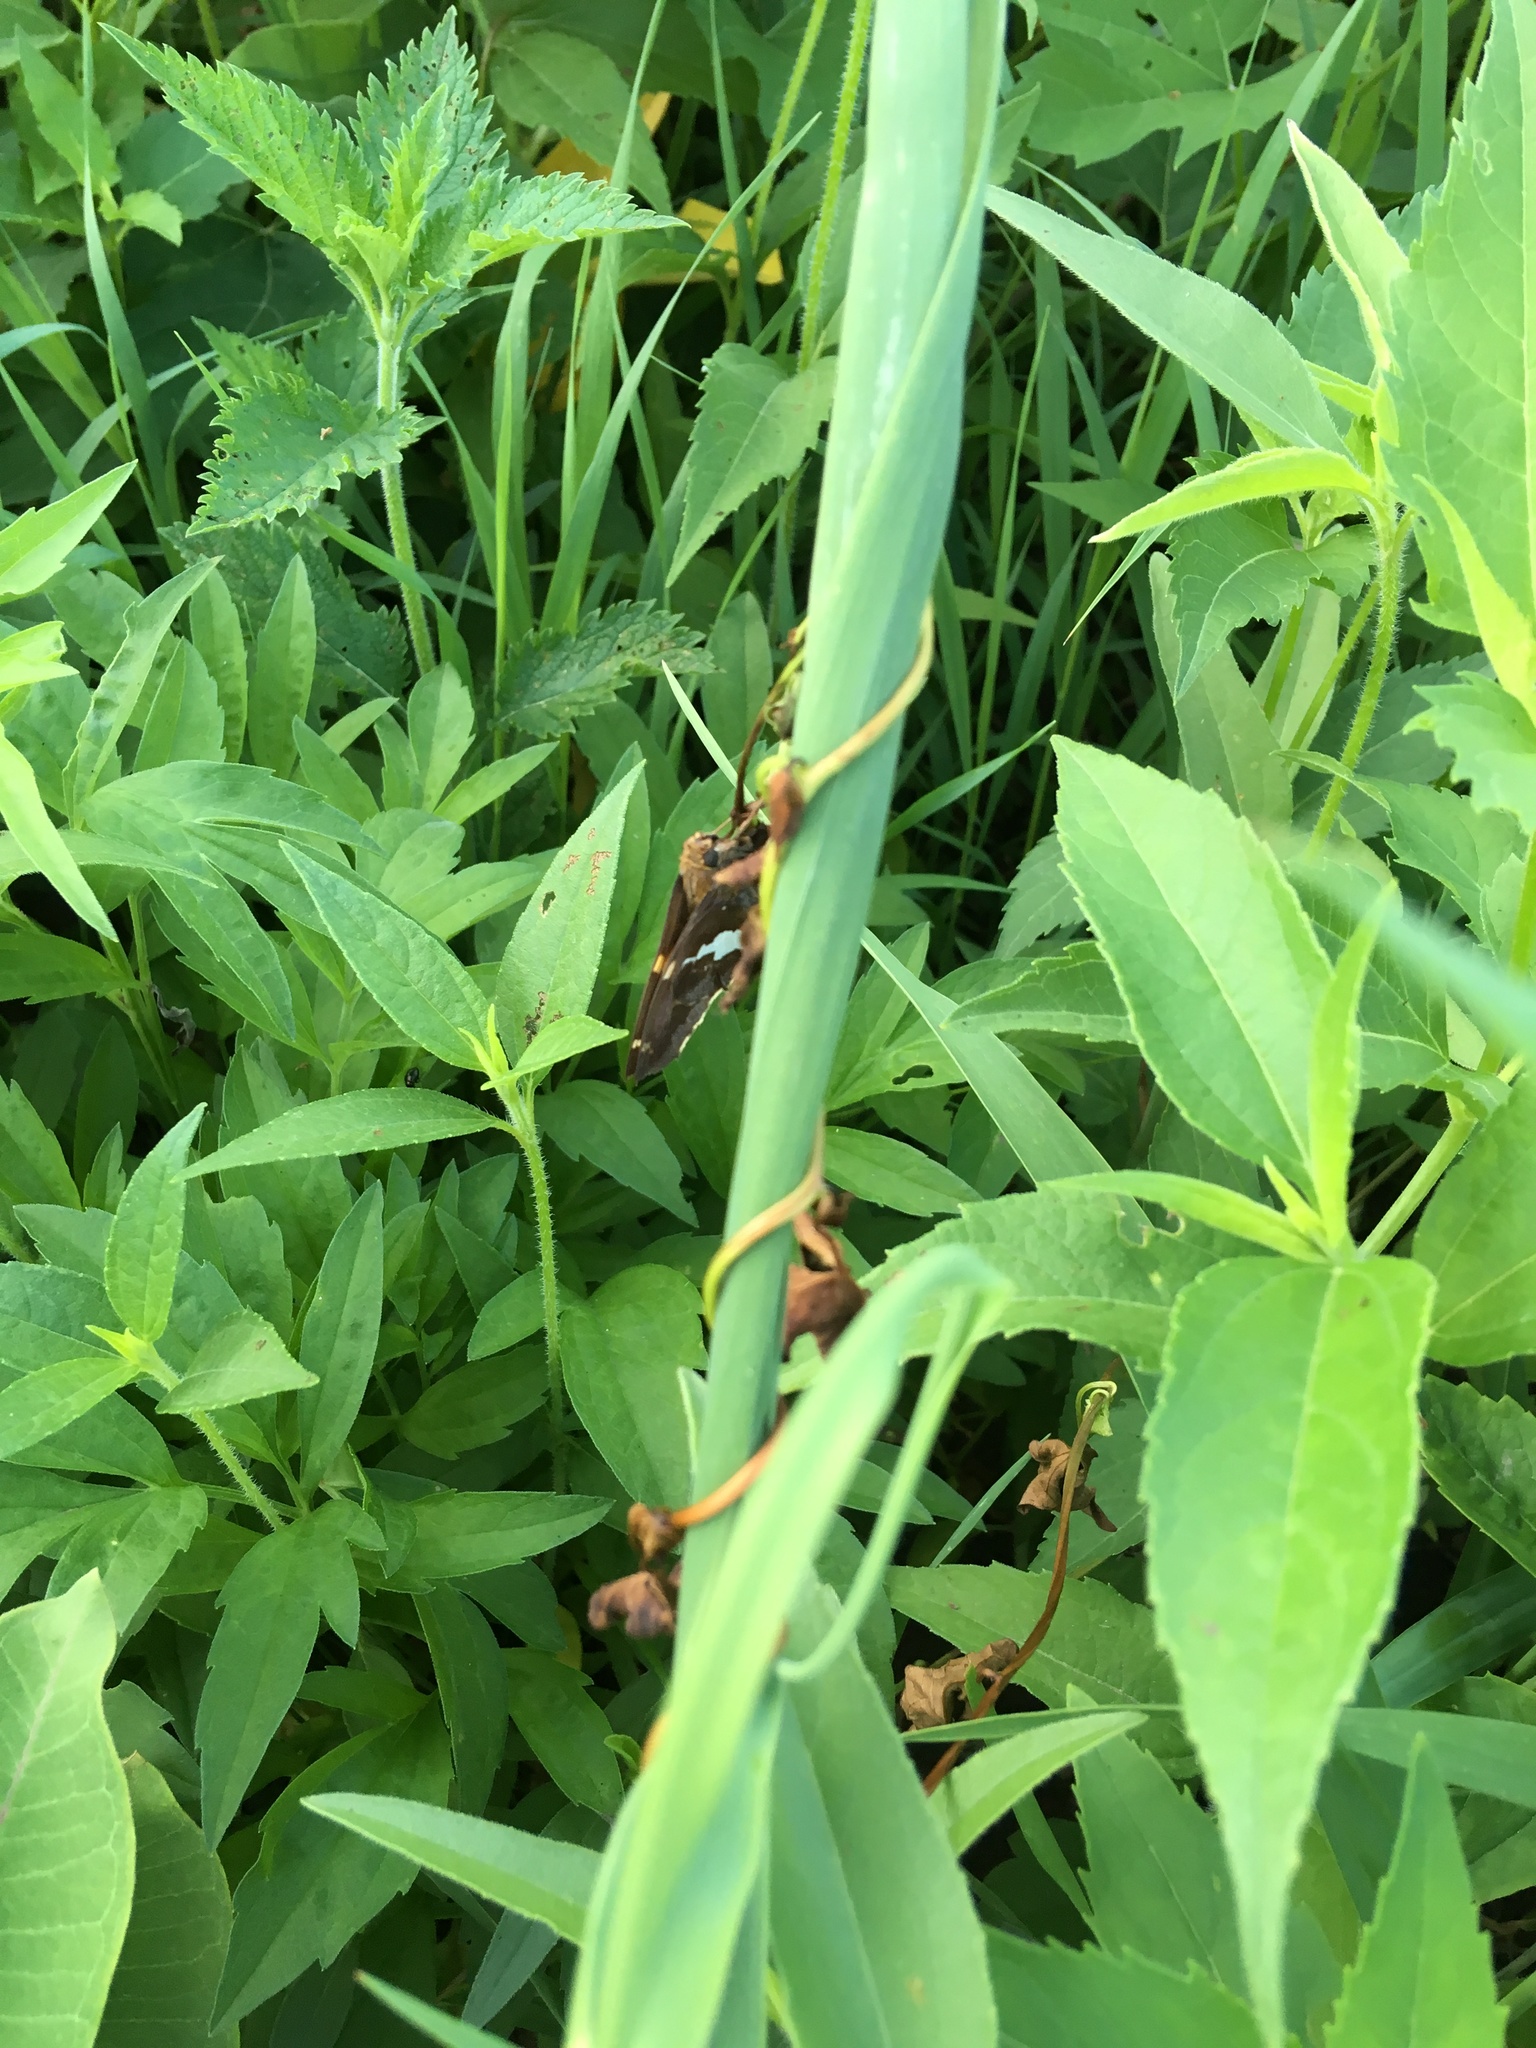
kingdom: Animalia
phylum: Arthropoda
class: Insecta
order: Lepidoptera
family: Hesperiidae
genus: Epargyreus
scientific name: Epargyreus clarus
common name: Silver-spotted skipper
